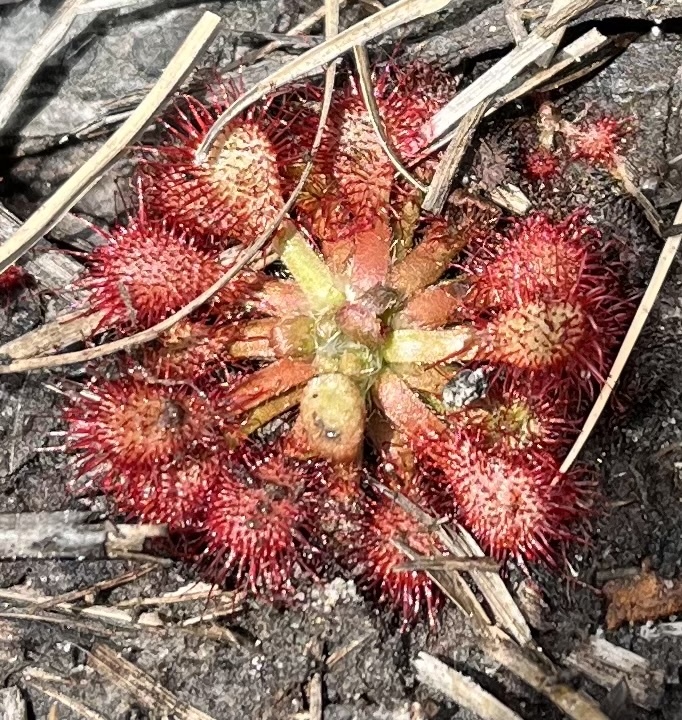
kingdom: Plantae
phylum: Tracheophyta
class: Magnoliopsida
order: Caryophyllales
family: Droseraceae
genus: Drosera
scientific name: Drosera capillaris
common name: Pink sundew
